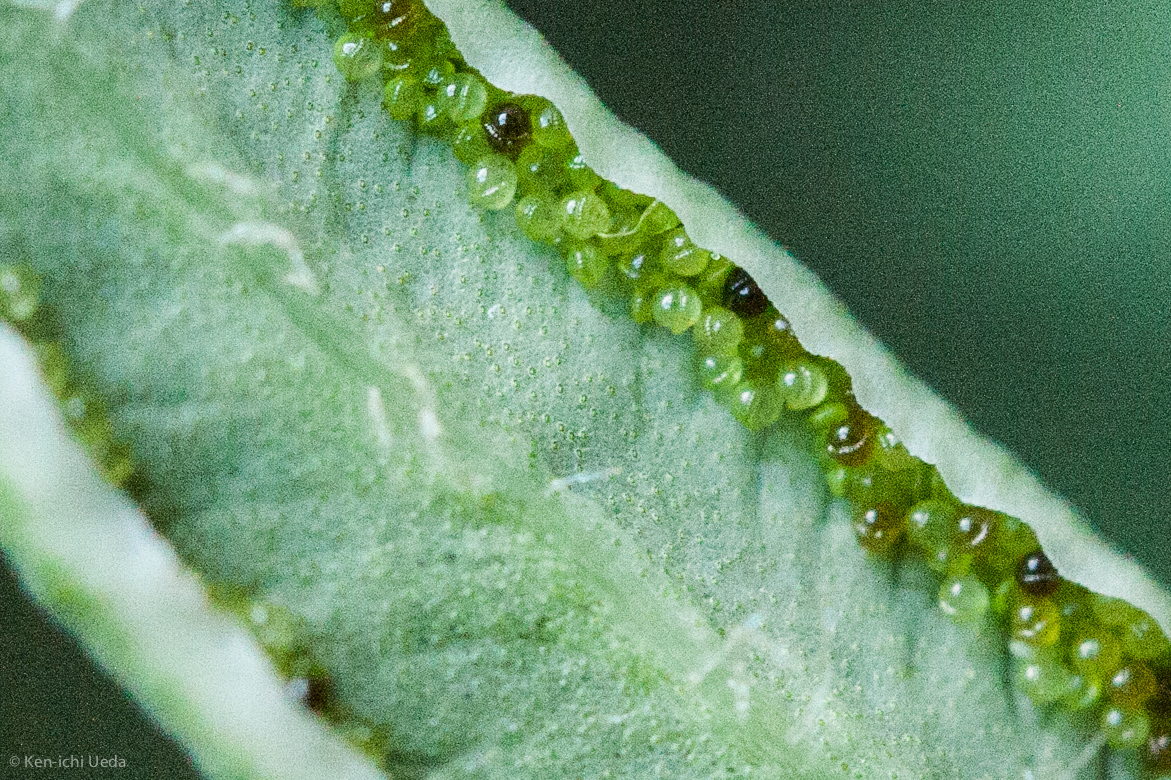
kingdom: Plantae
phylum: Tracheophyta
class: Polypodiopsida
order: Polypodiales
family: Pteridaceae
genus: Pellaea
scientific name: Pellaea atropurpurea
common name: Hairy cliffbrake
